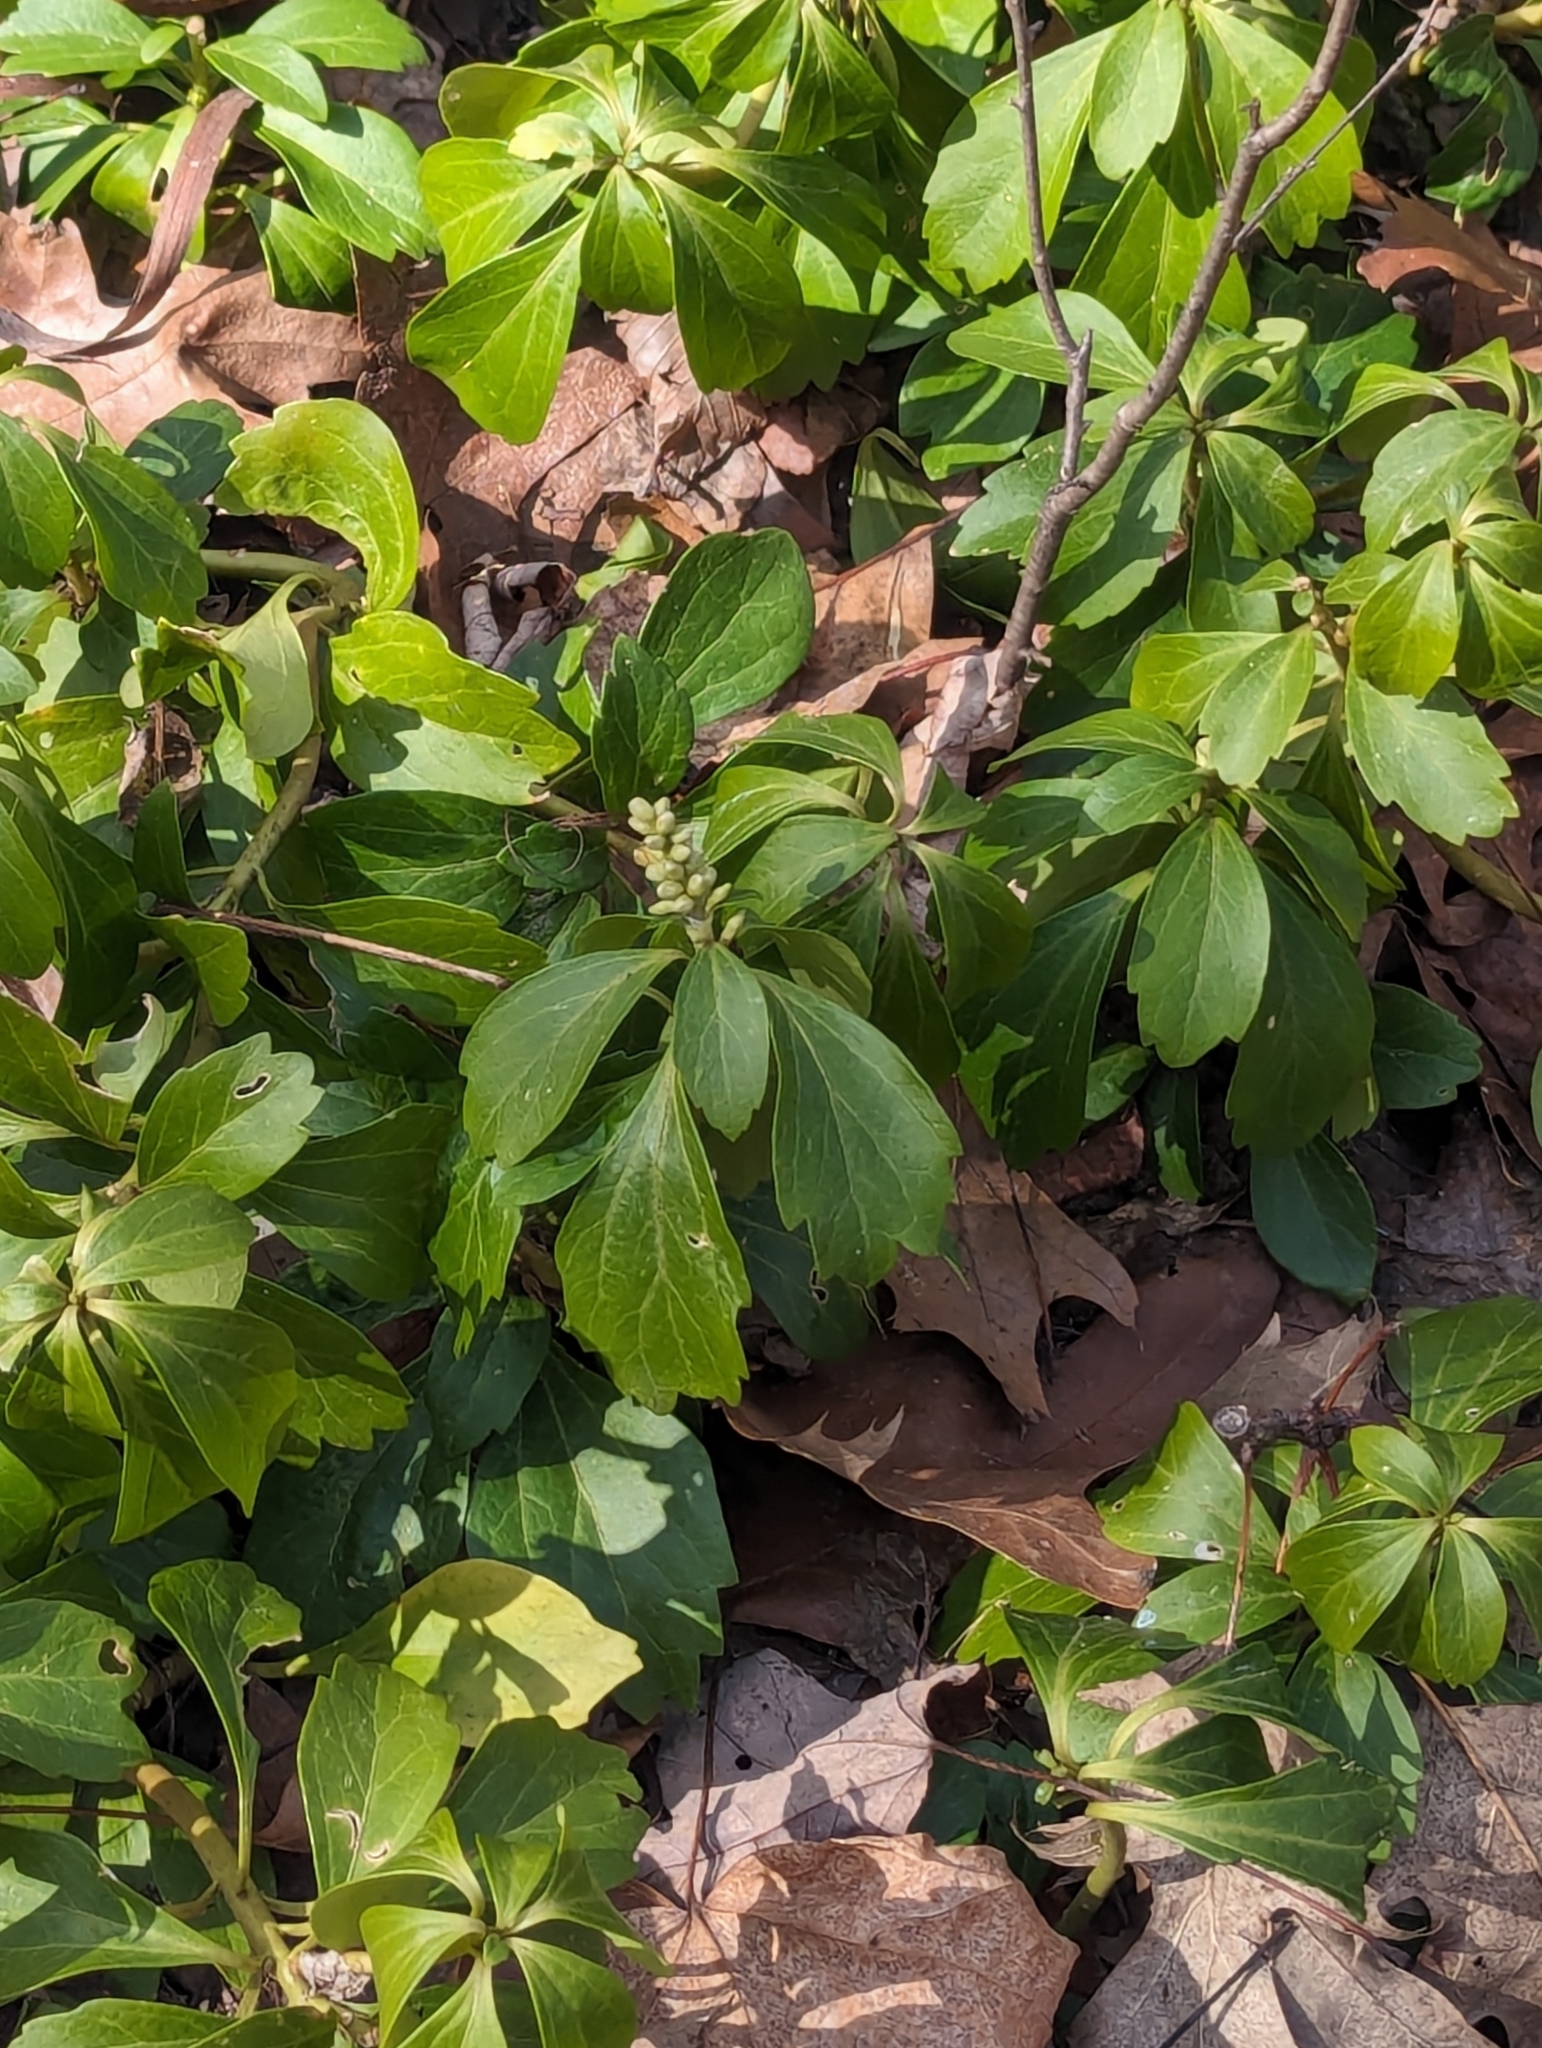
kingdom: Plantae
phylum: Tracheophyta
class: Magnoliopsida
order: Buxales
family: Buxaceae
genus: Pachysandra
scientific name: Pachysandra terminalis
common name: Japanese pachysandra
